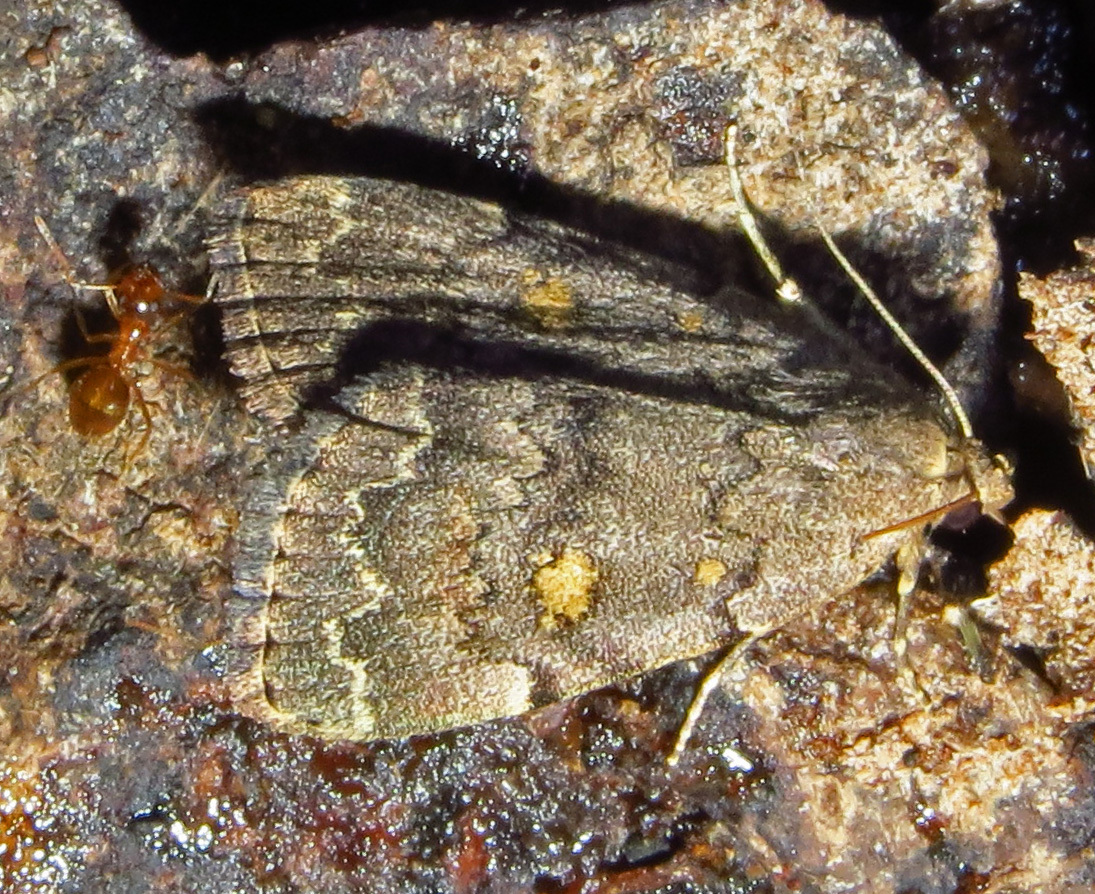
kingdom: Animalia
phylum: Arthropoda
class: Insecta
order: Lepidoptera
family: Erebidae
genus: Idia
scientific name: Idia aemula
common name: Common idia moth
